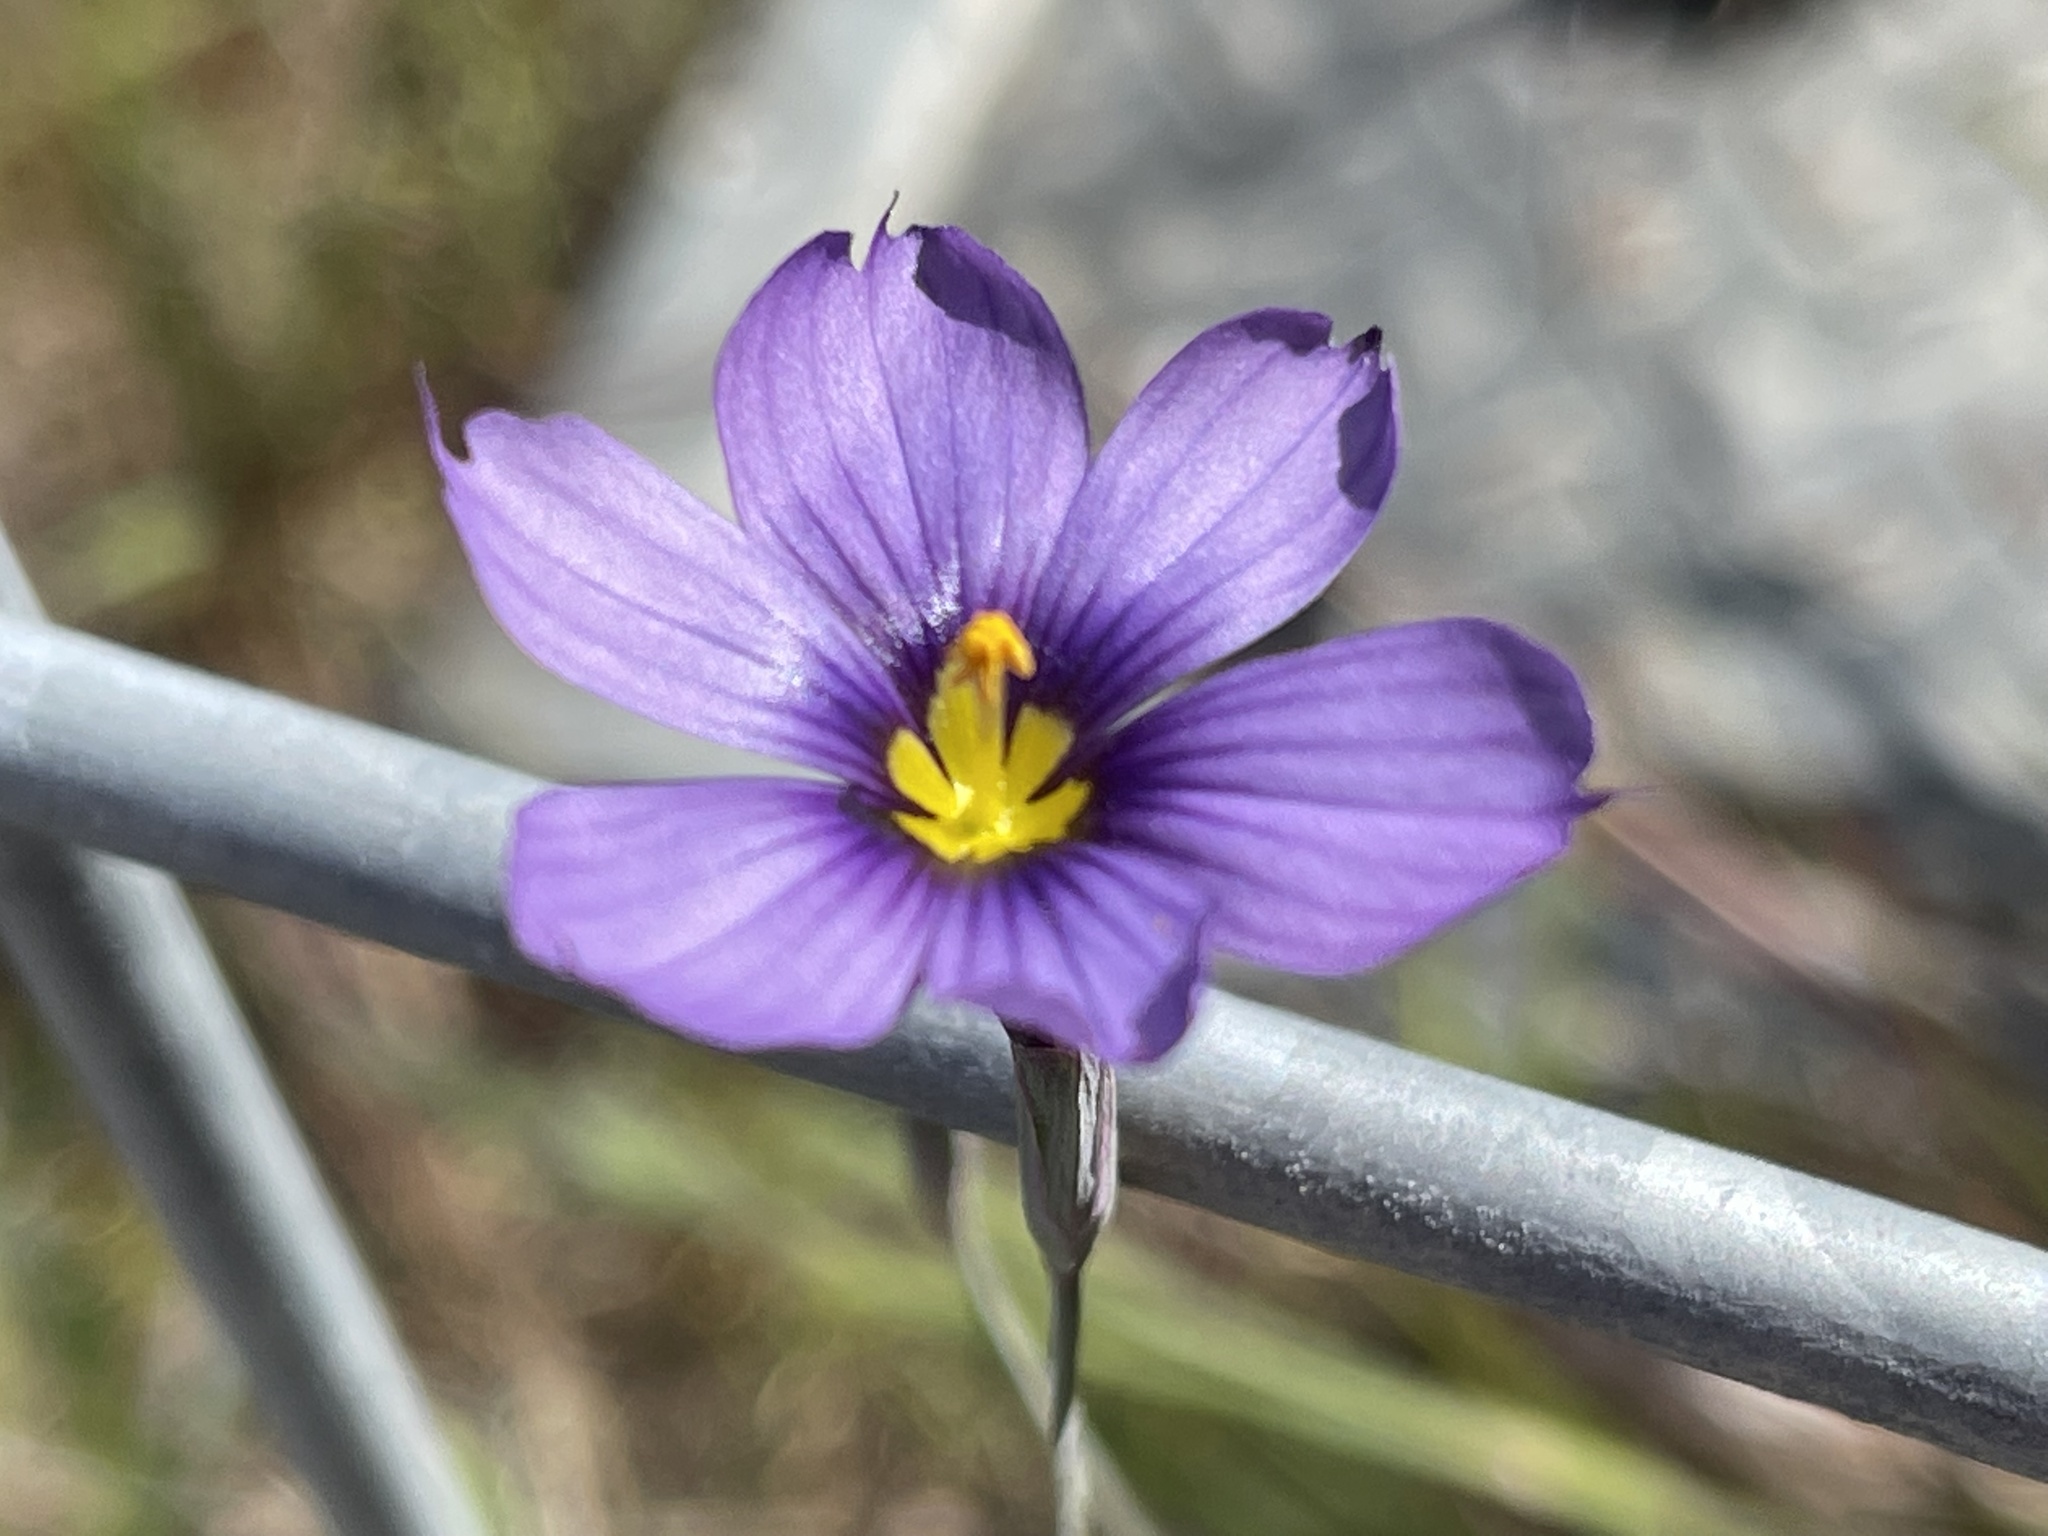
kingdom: Plantae
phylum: Tracheophyta
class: Liliopsida
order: Asparagales
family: Iridaceae
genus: Sisyrinchium
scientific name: Sisyrinchium bellum
